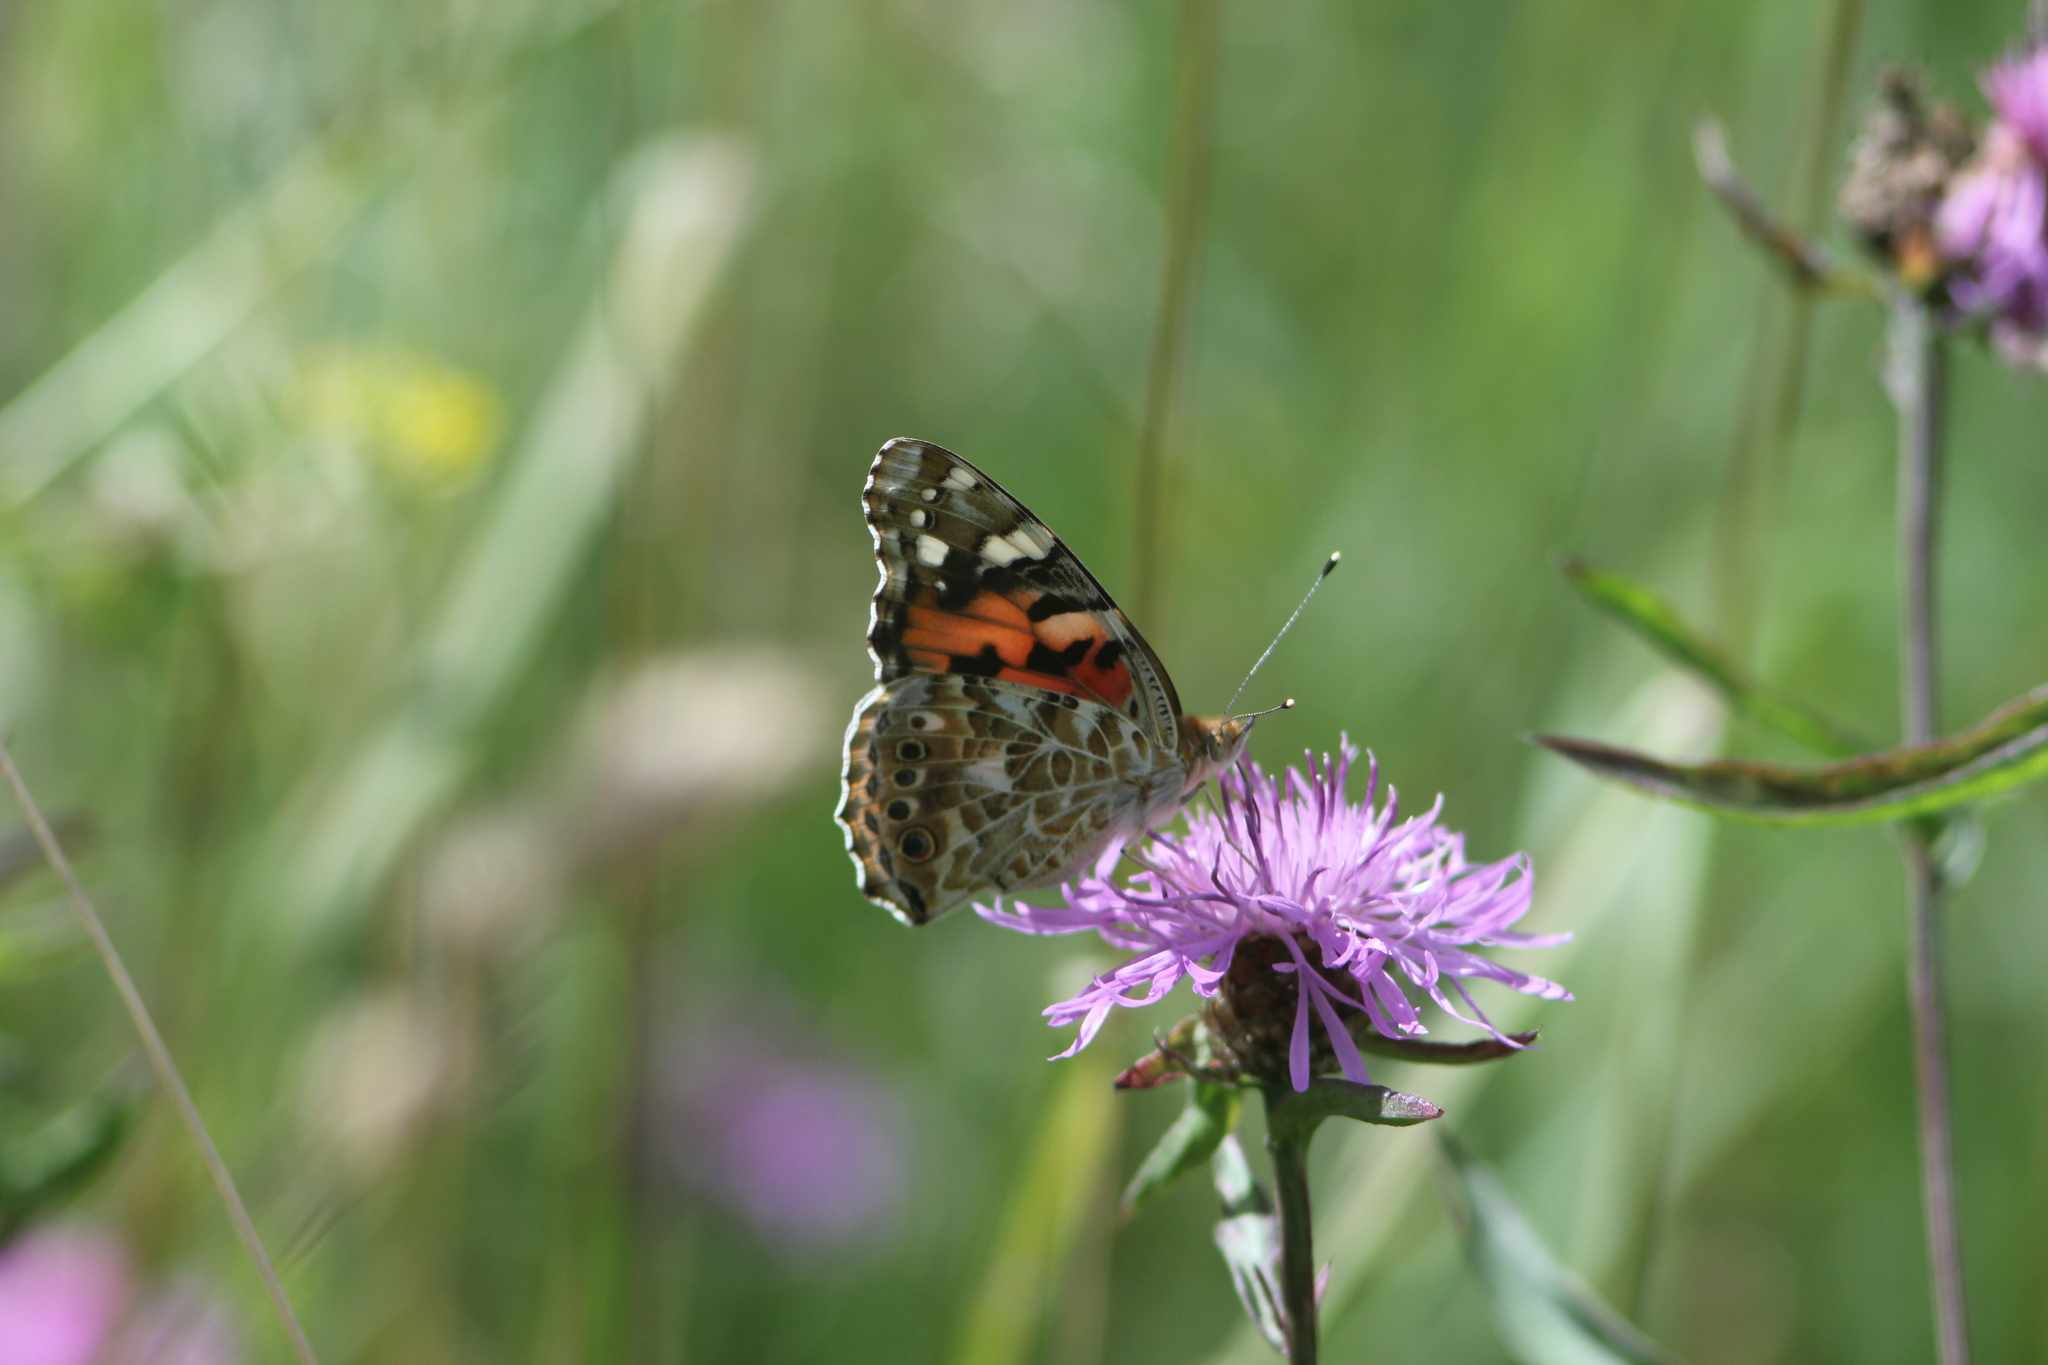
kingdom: Animalia
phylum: Arthropoda
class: Insecta
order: Lepidoptera
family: Nymphalidae
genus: Vanessa
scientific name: Vanessa cardui
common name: Painted lady
